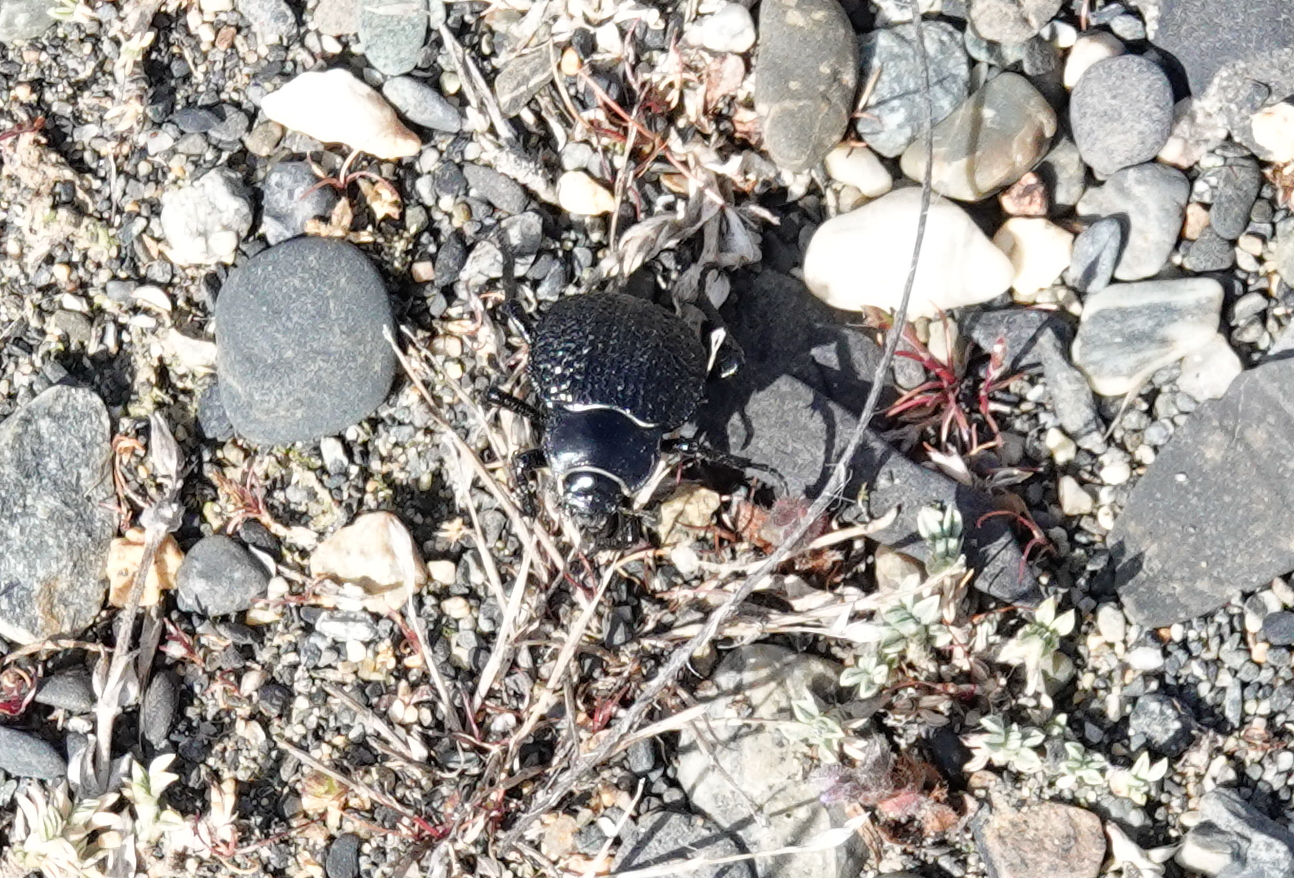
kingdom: Animalia
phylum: Arthropoda
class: Insecta
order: Coleoptera
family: Tenebrionidae
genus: Nyctelia
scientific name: Nyctelia
